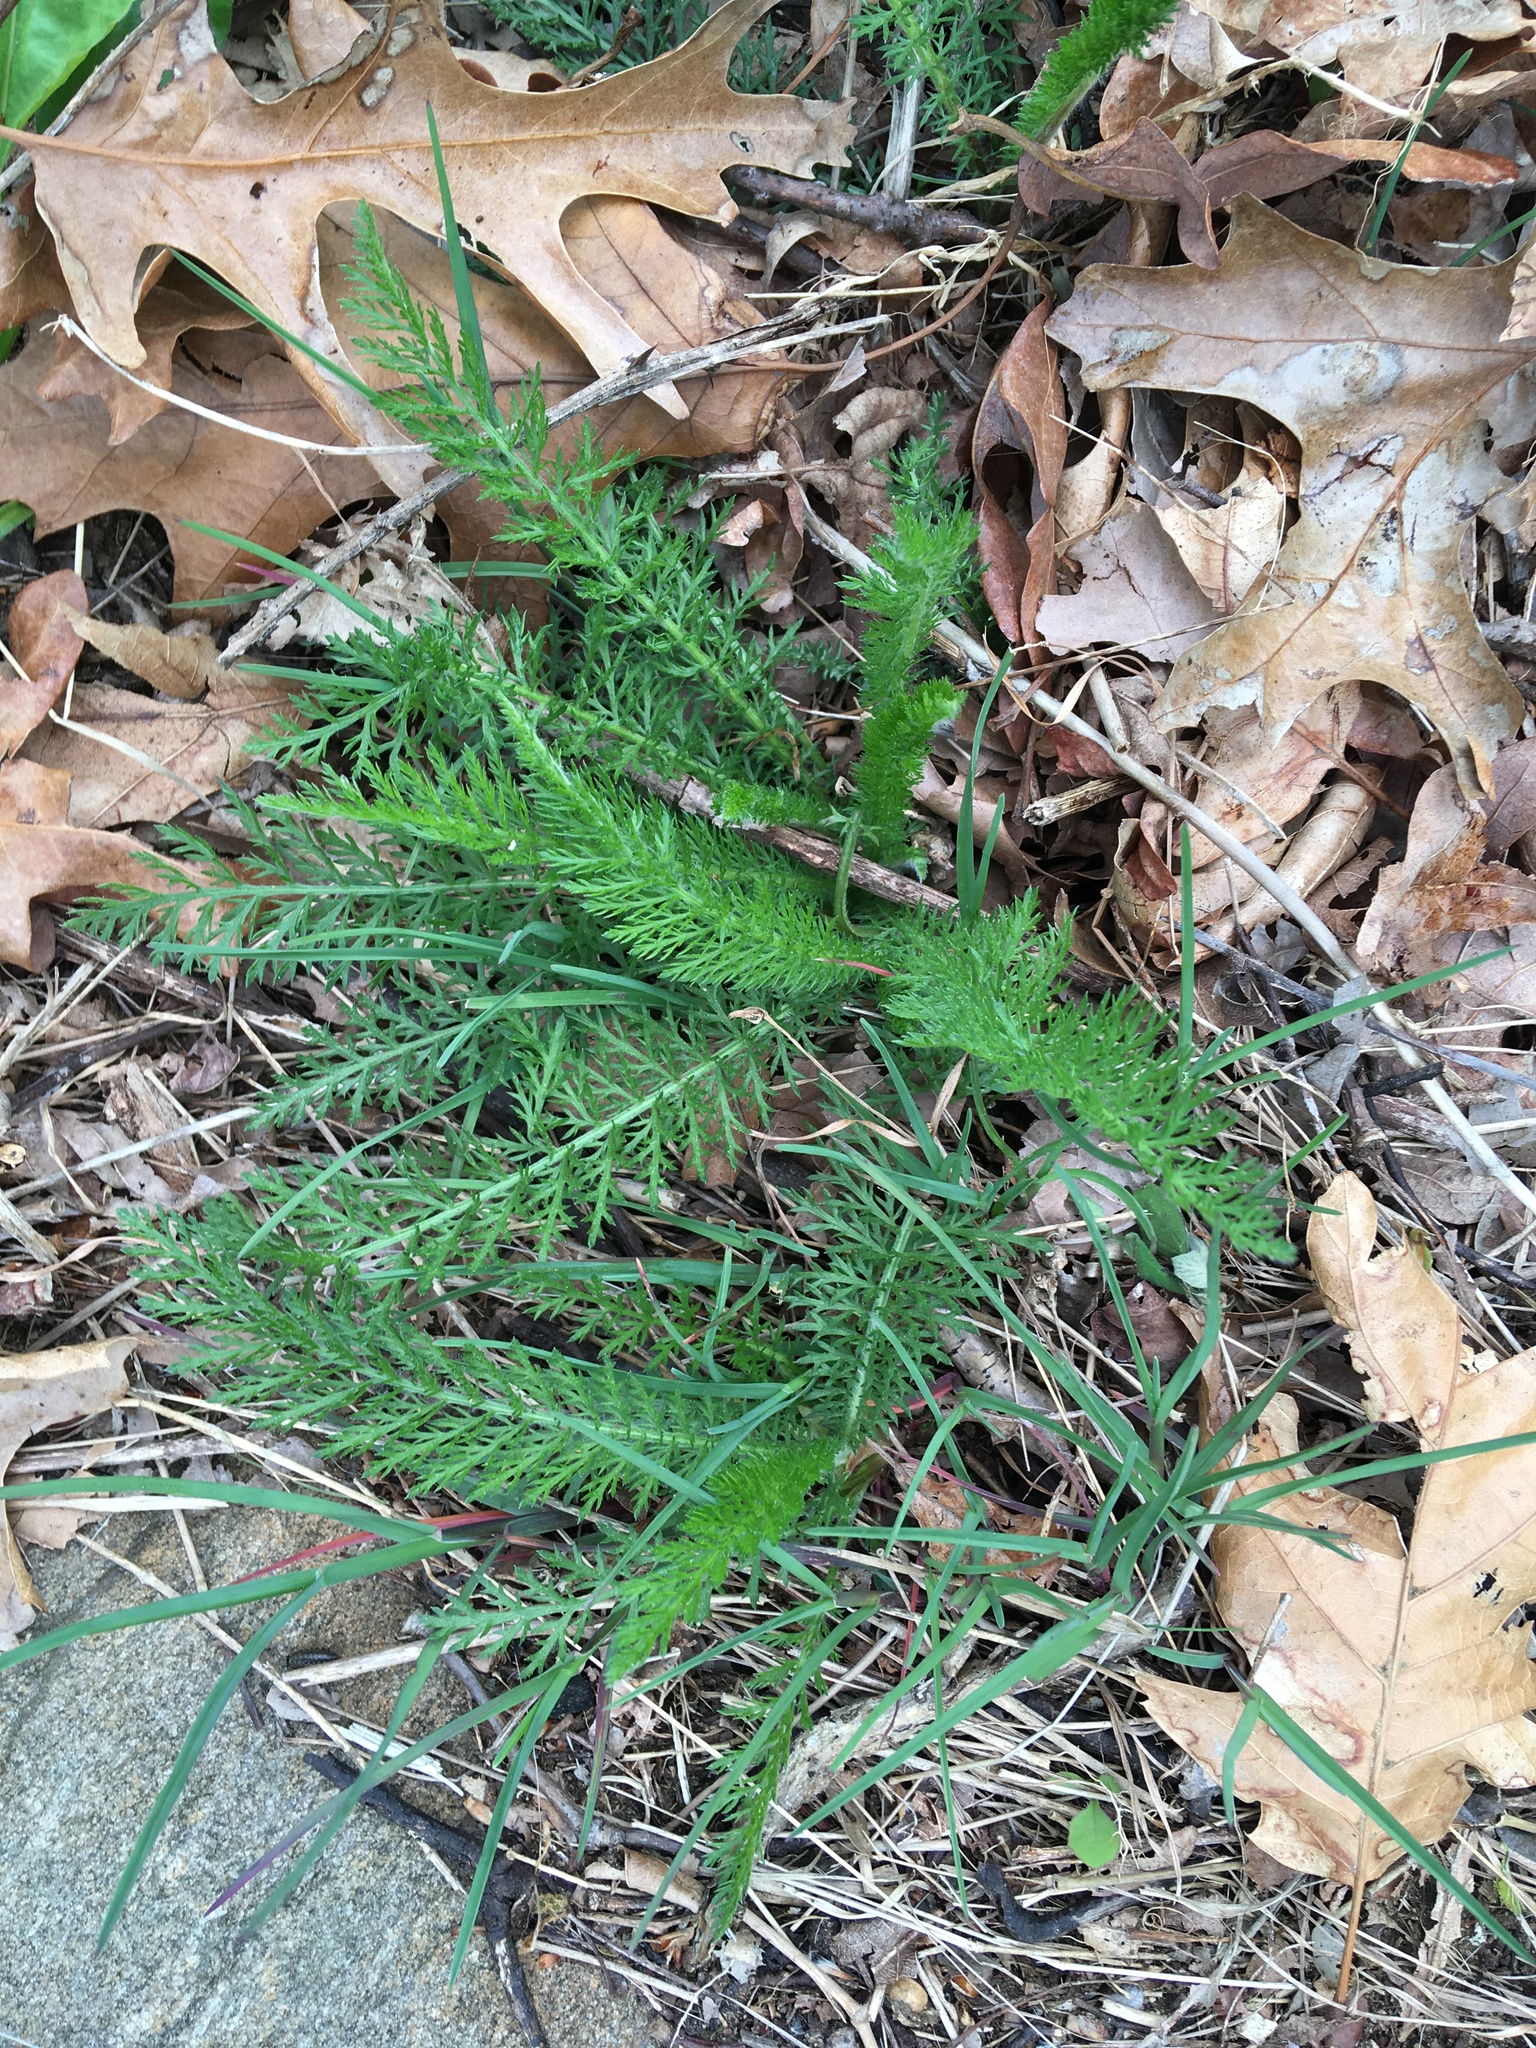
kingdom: Plantae
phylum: Tracheophyta
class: Magnoliopsida
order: Asterales
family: Asteraceae
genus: Achillea
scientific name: Achillea millefolium
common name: Yarrow
